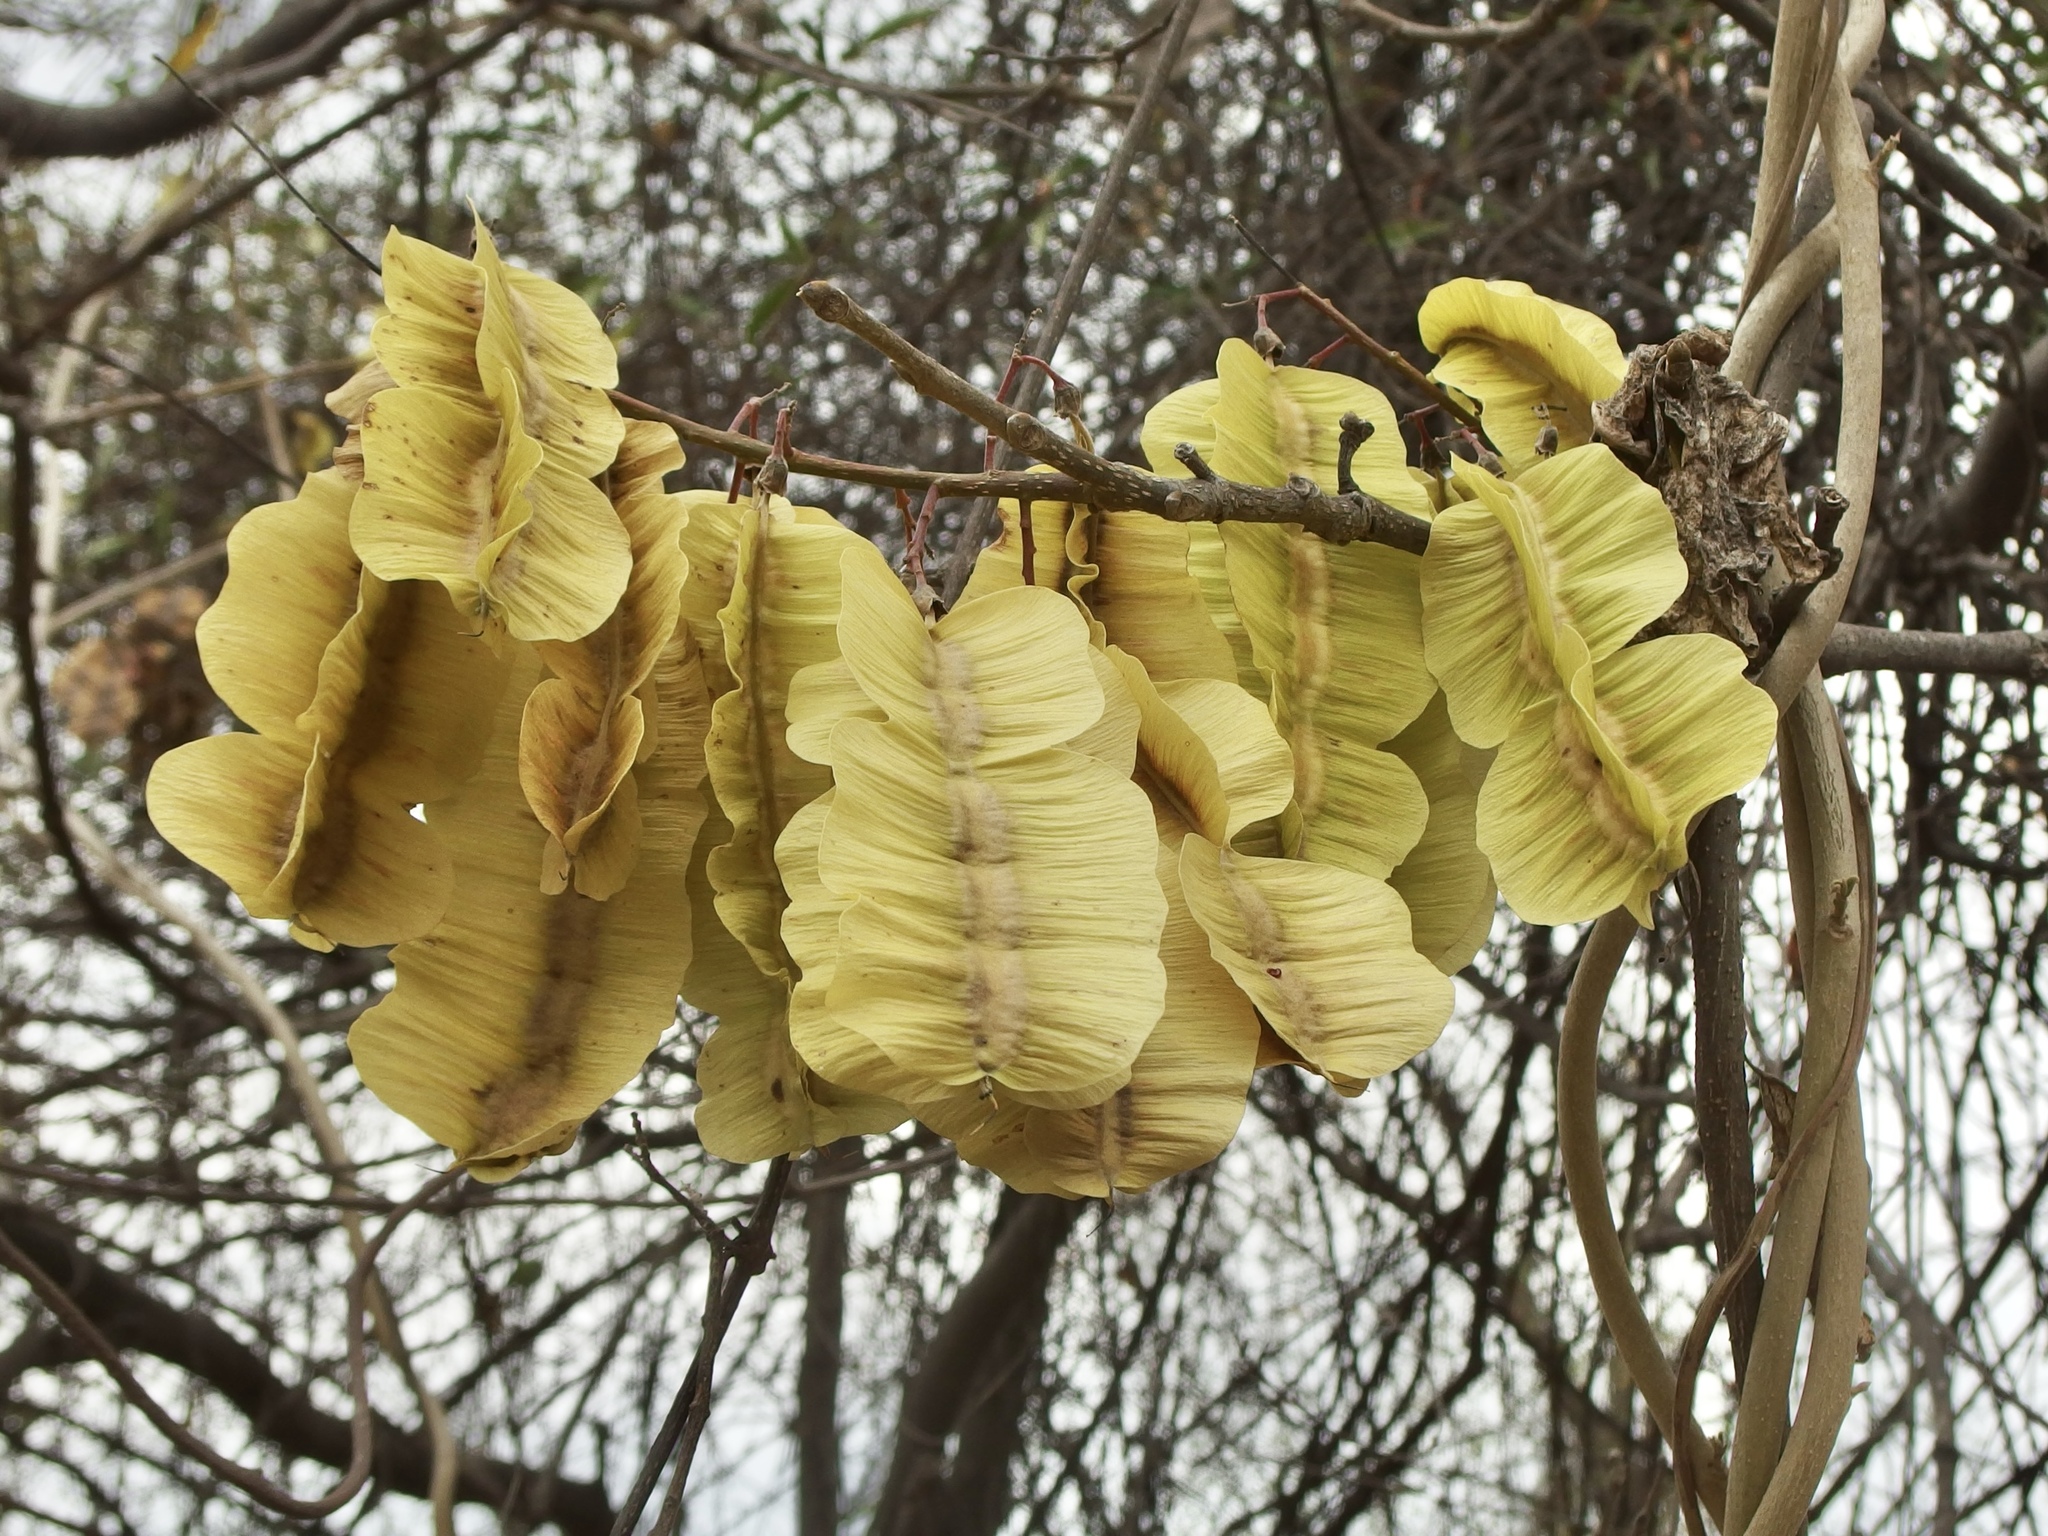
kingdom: Plantae
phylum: Tracheophyta
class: Magnoliopsida
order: Fabales
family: Fabaceae
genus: Piscidia
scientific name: Piscidia carthagenensis
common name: Stinkwood
